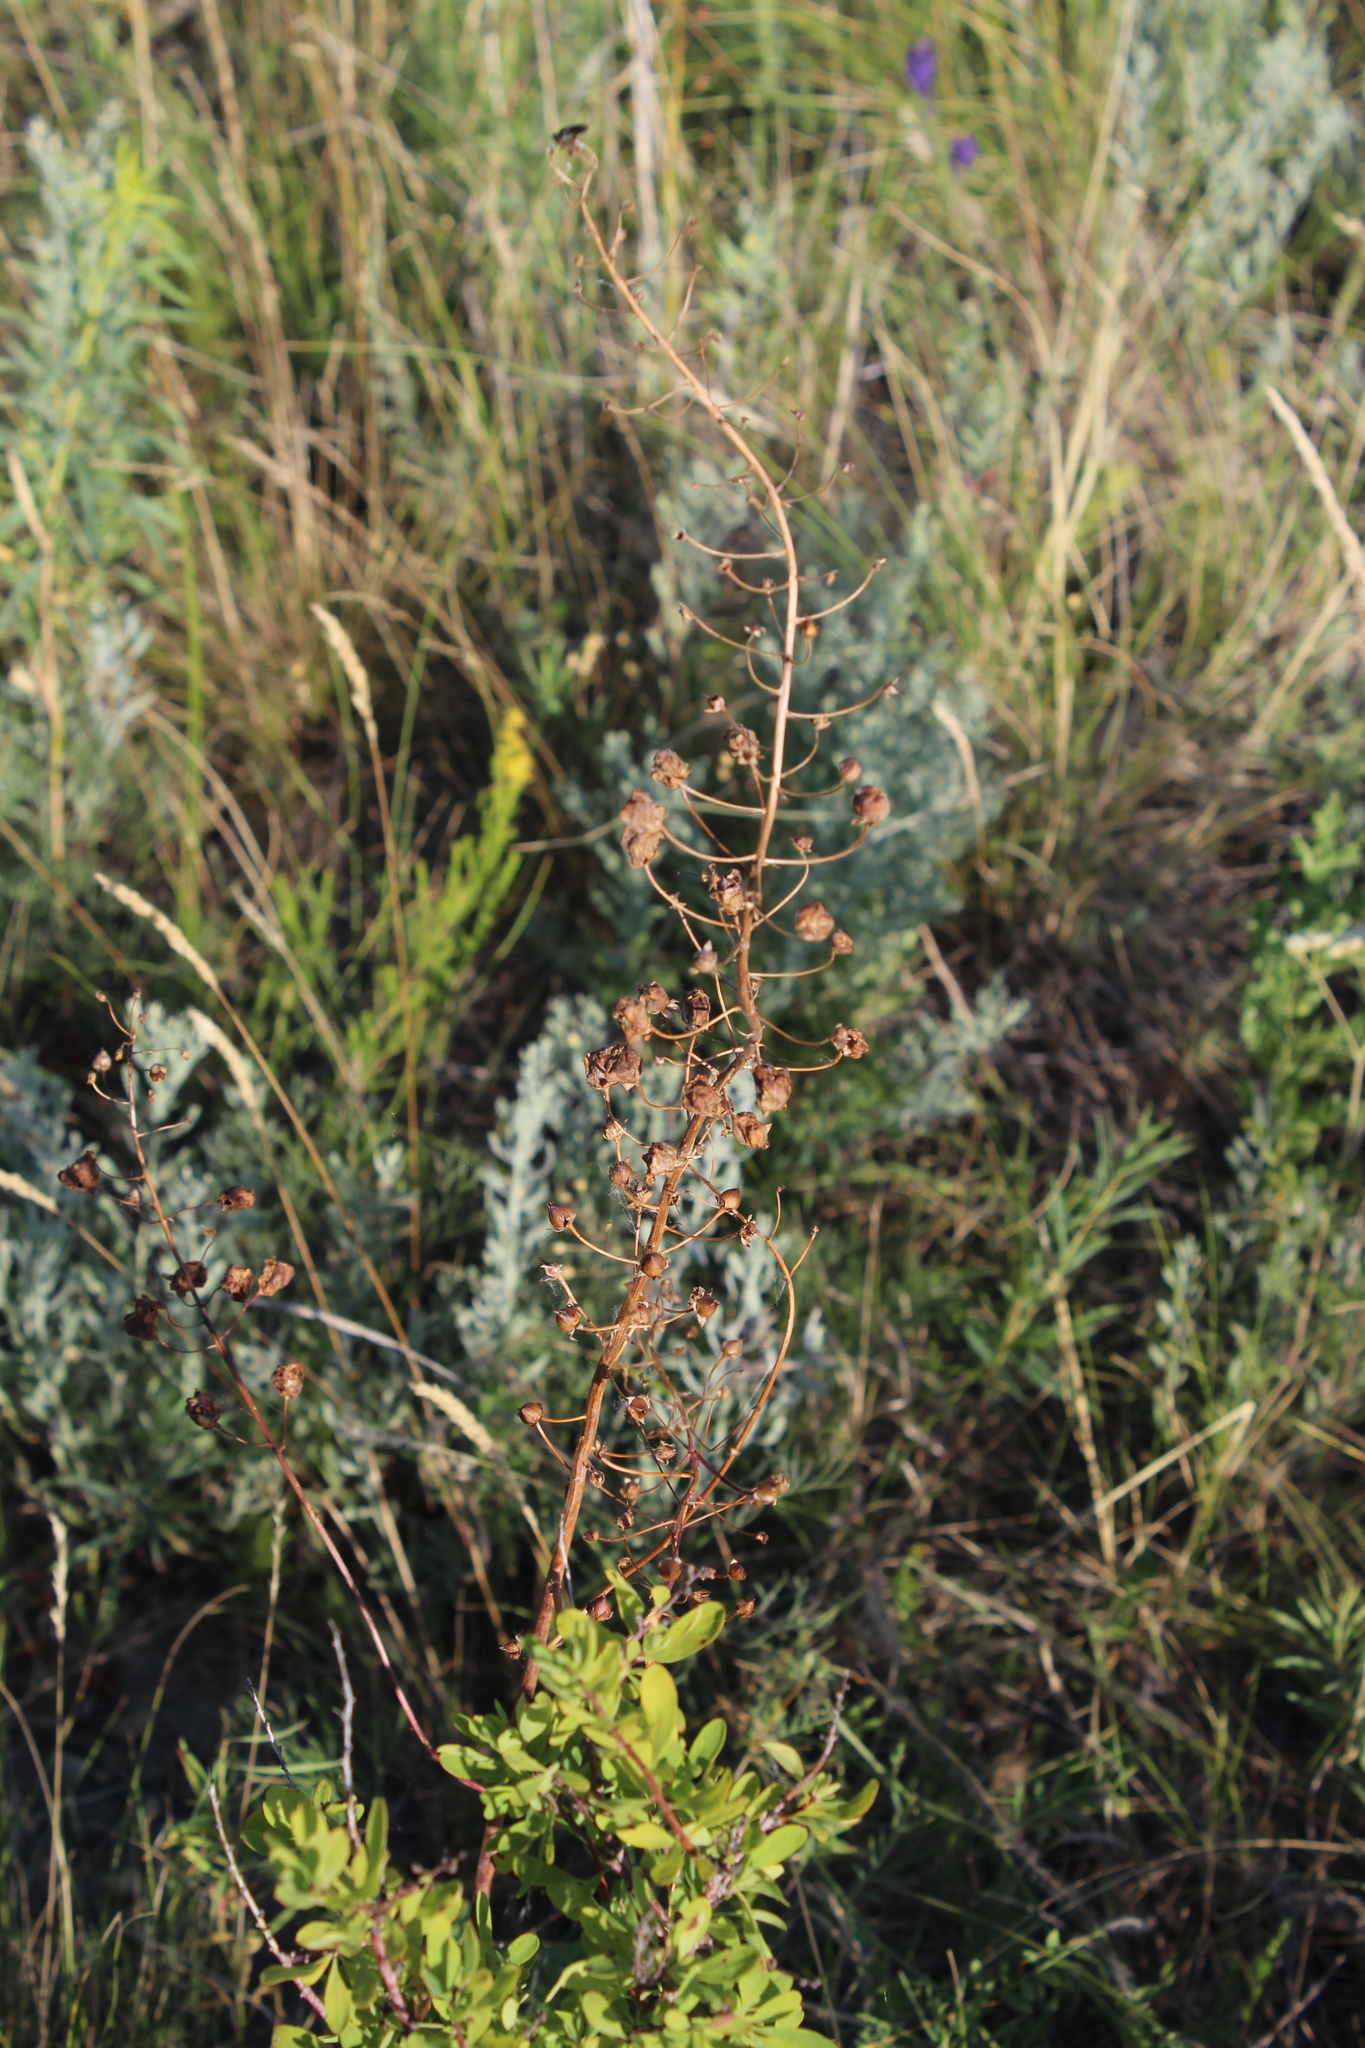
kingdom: Plantae
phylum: Tracheophyta
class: Magnoliopsida
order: Lamiales
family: Scrophulariaceae
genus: Verbascum
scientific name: Verbascum phoeniceum
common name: Purple mullein
